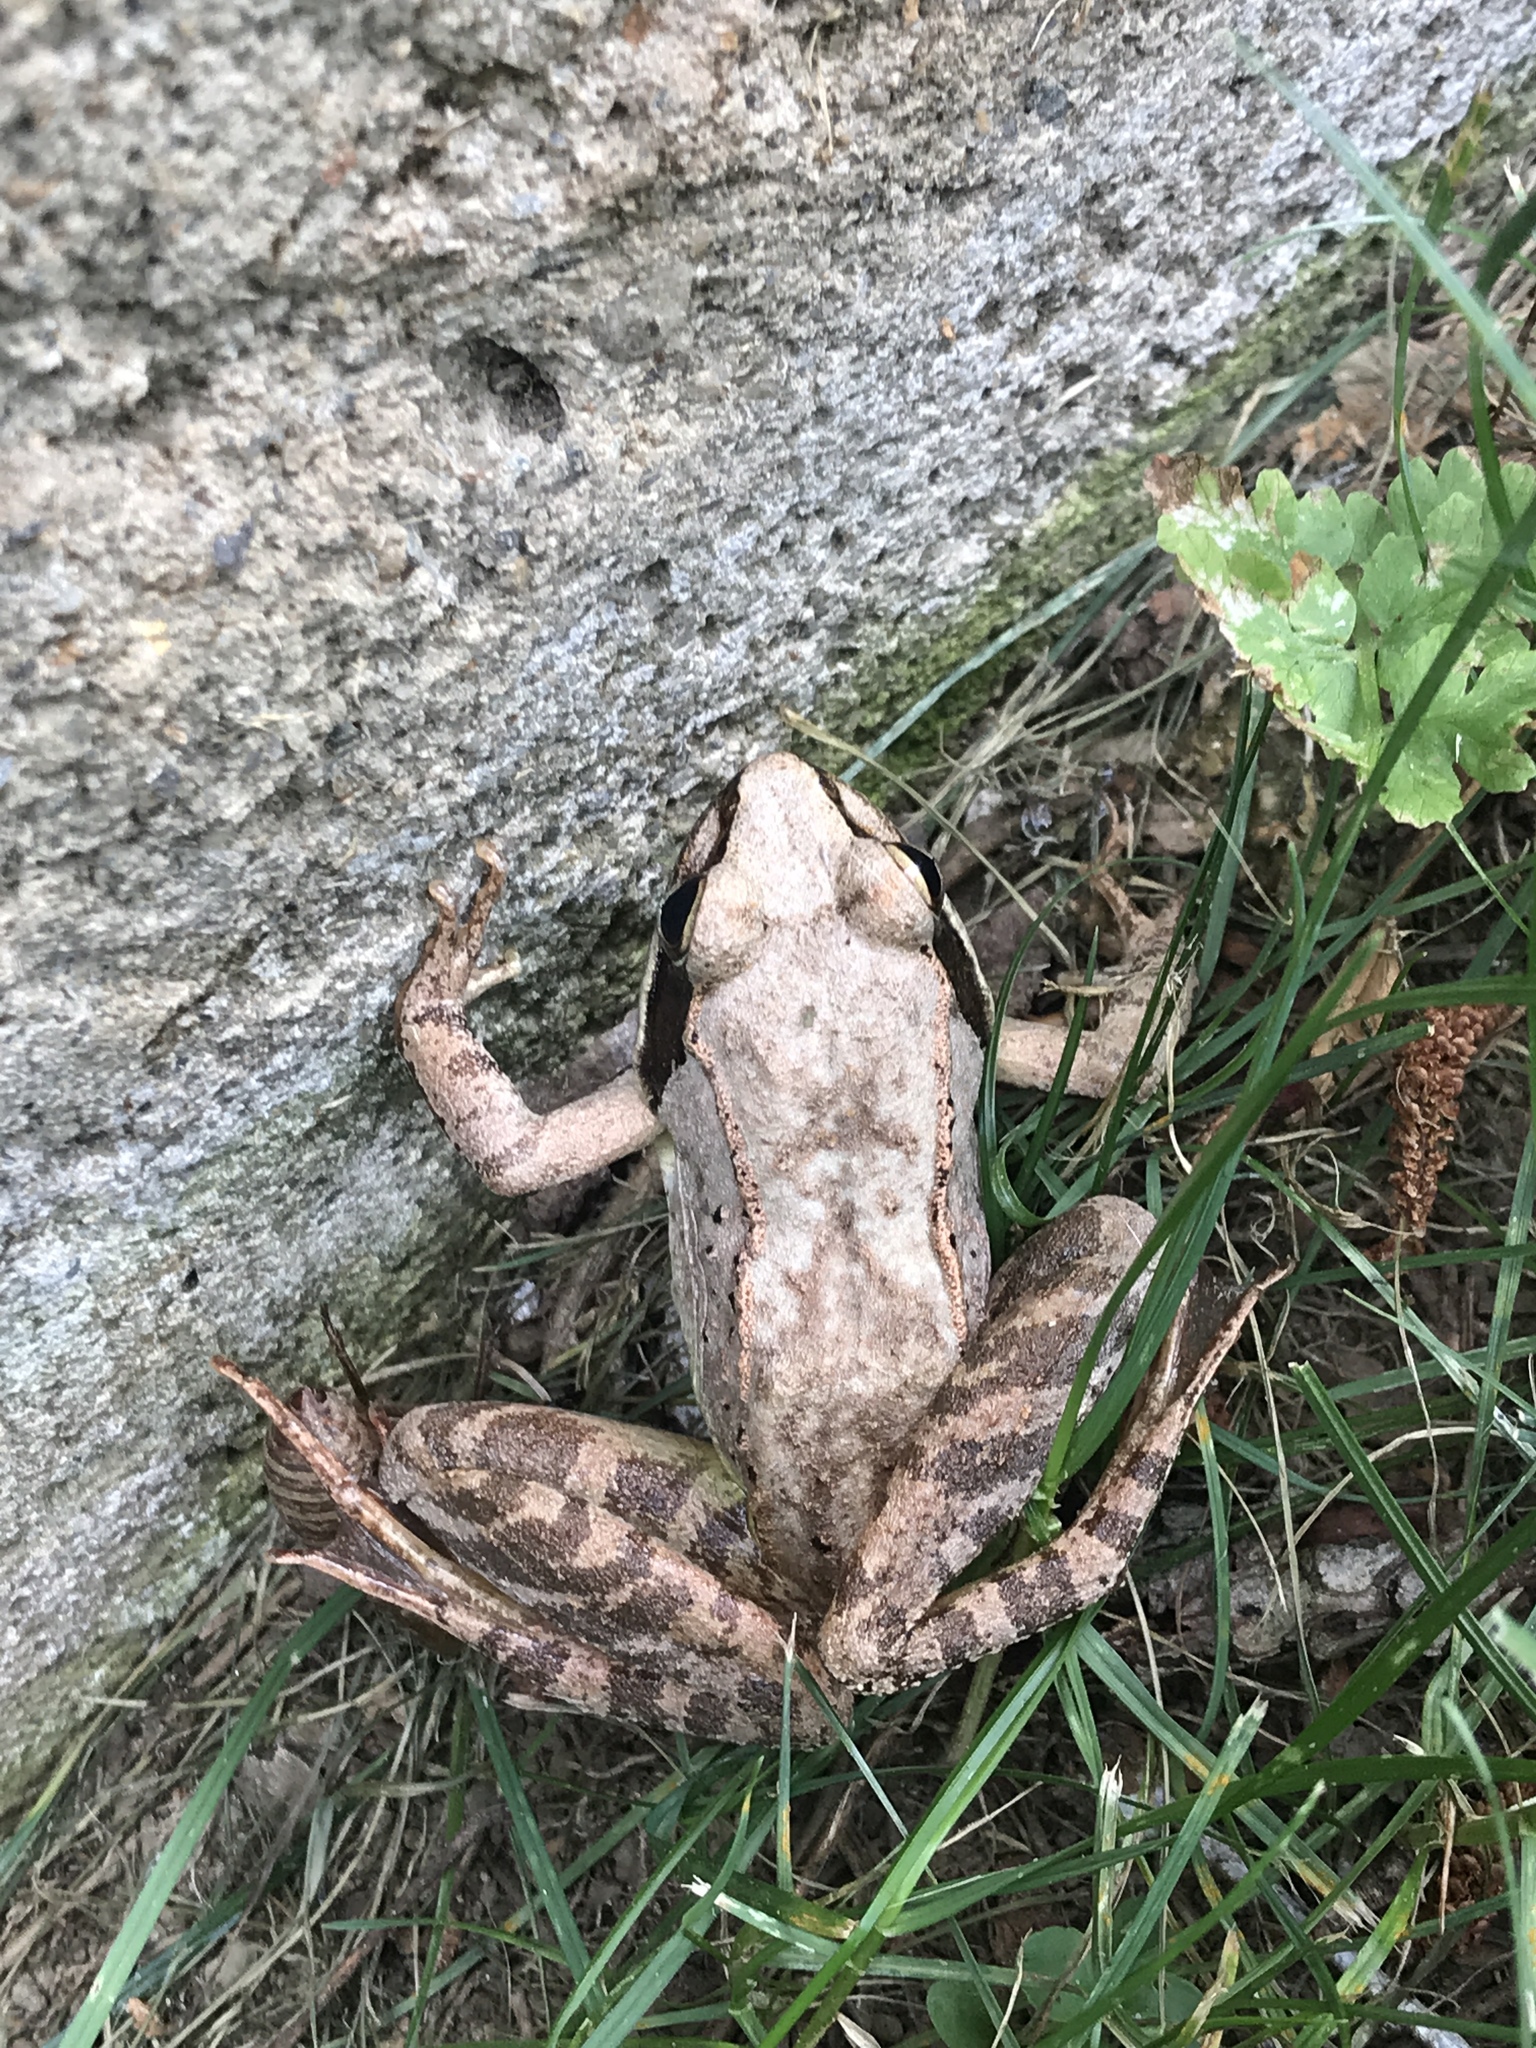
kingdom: Animalia
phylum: Chordata
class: Amphibia
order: Anura
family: Ranidae
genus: Lithobates
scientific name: Lithobates sylvaticus
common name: Wood frog
